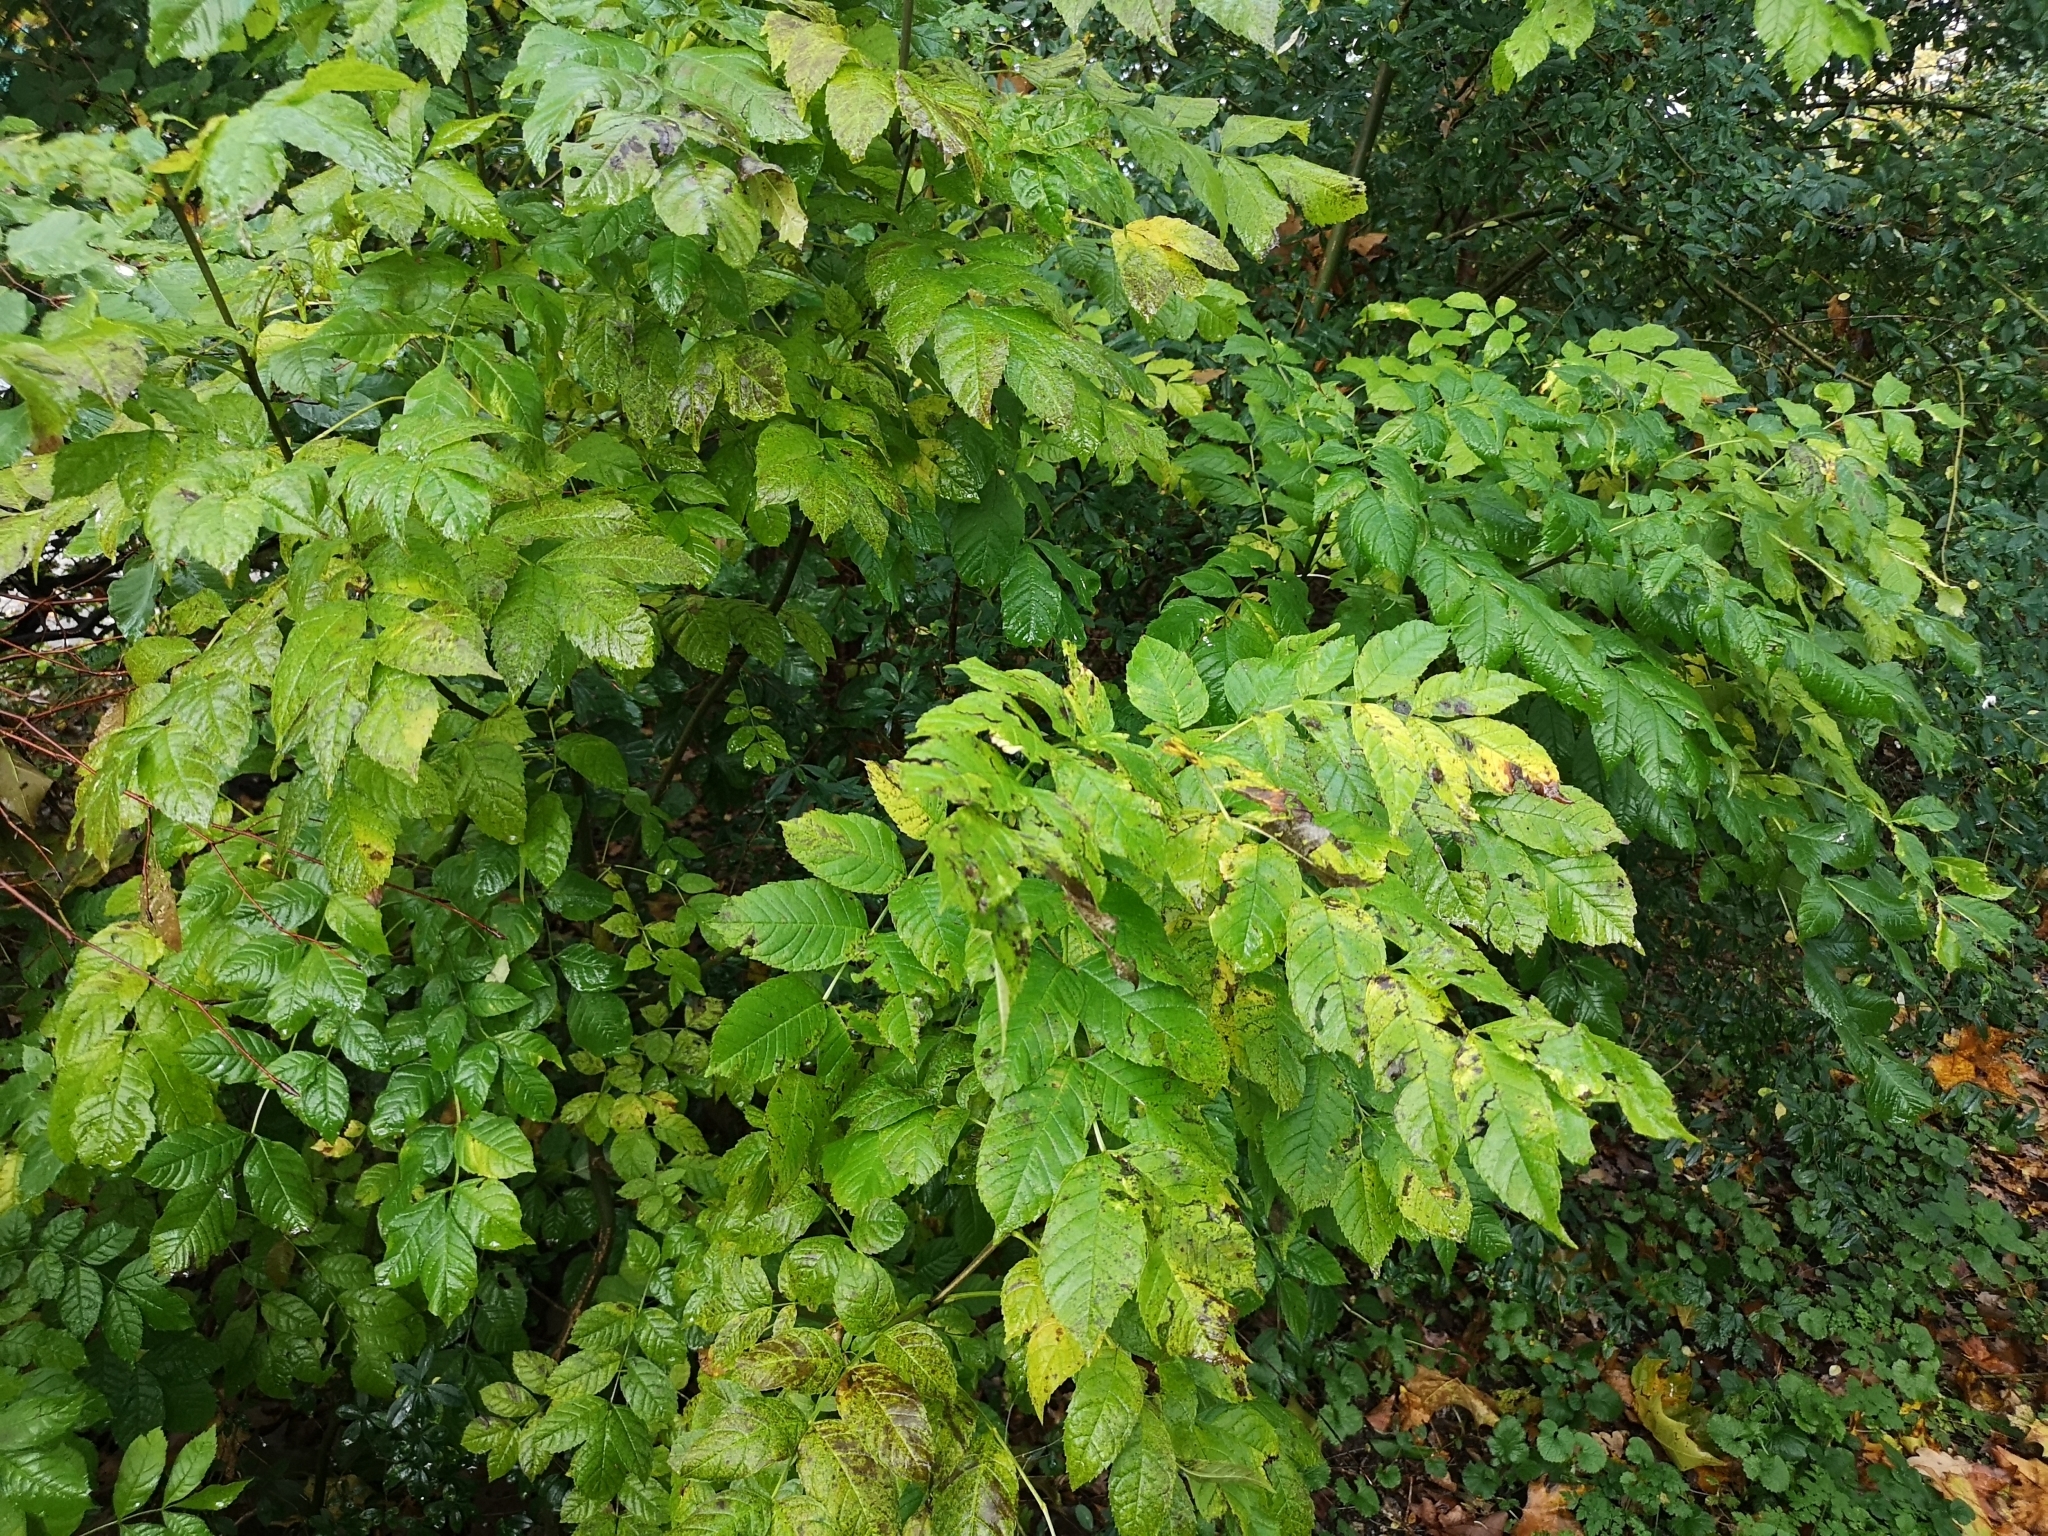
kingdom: Plantae
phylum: Tracheophyta
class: Magnoliopsida
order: Lamiales
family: Oleaceae
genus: Fraxinus
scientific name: Fraxinus excelsior
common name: European ash
